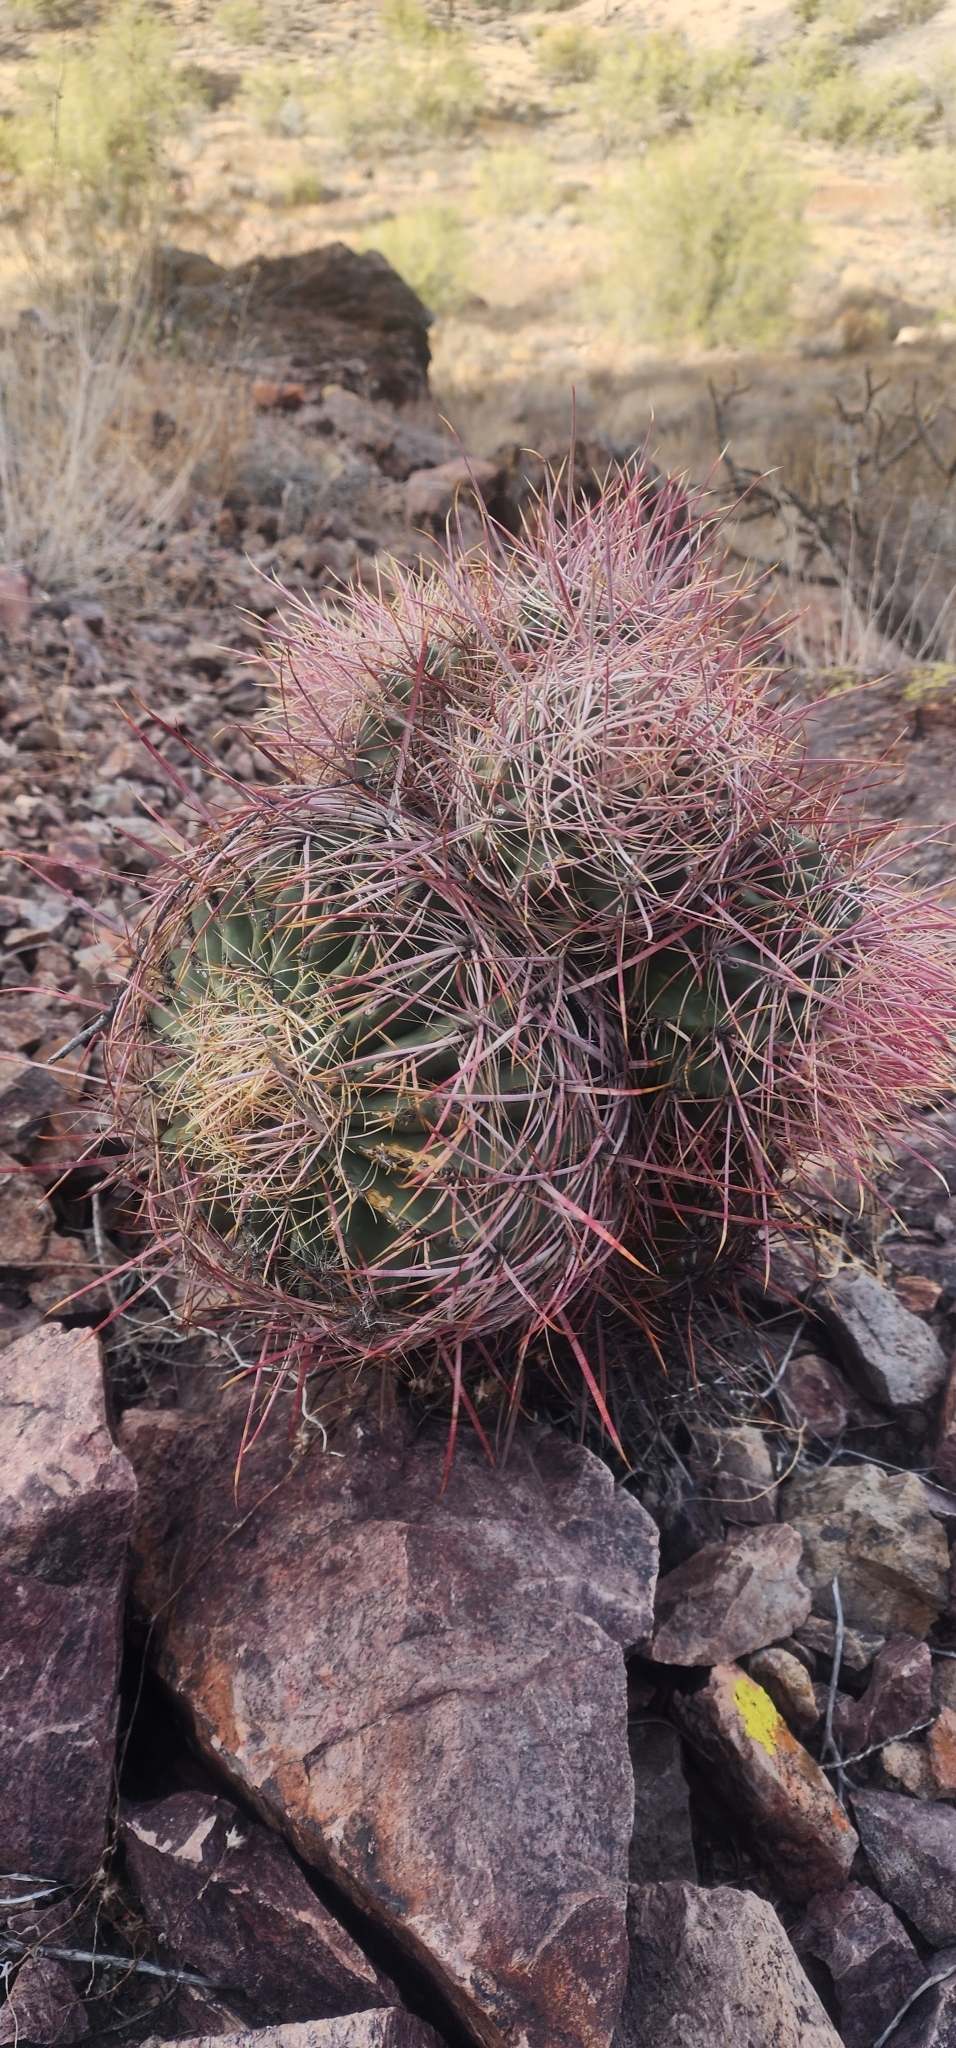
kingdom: Plantae
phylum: Tracheophyta
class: Magnoliopsida
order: Caryophyllales
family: Cactaceae
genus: Ferocactus
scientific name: Ferocactus cylindraceus
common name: California barrel cactus
